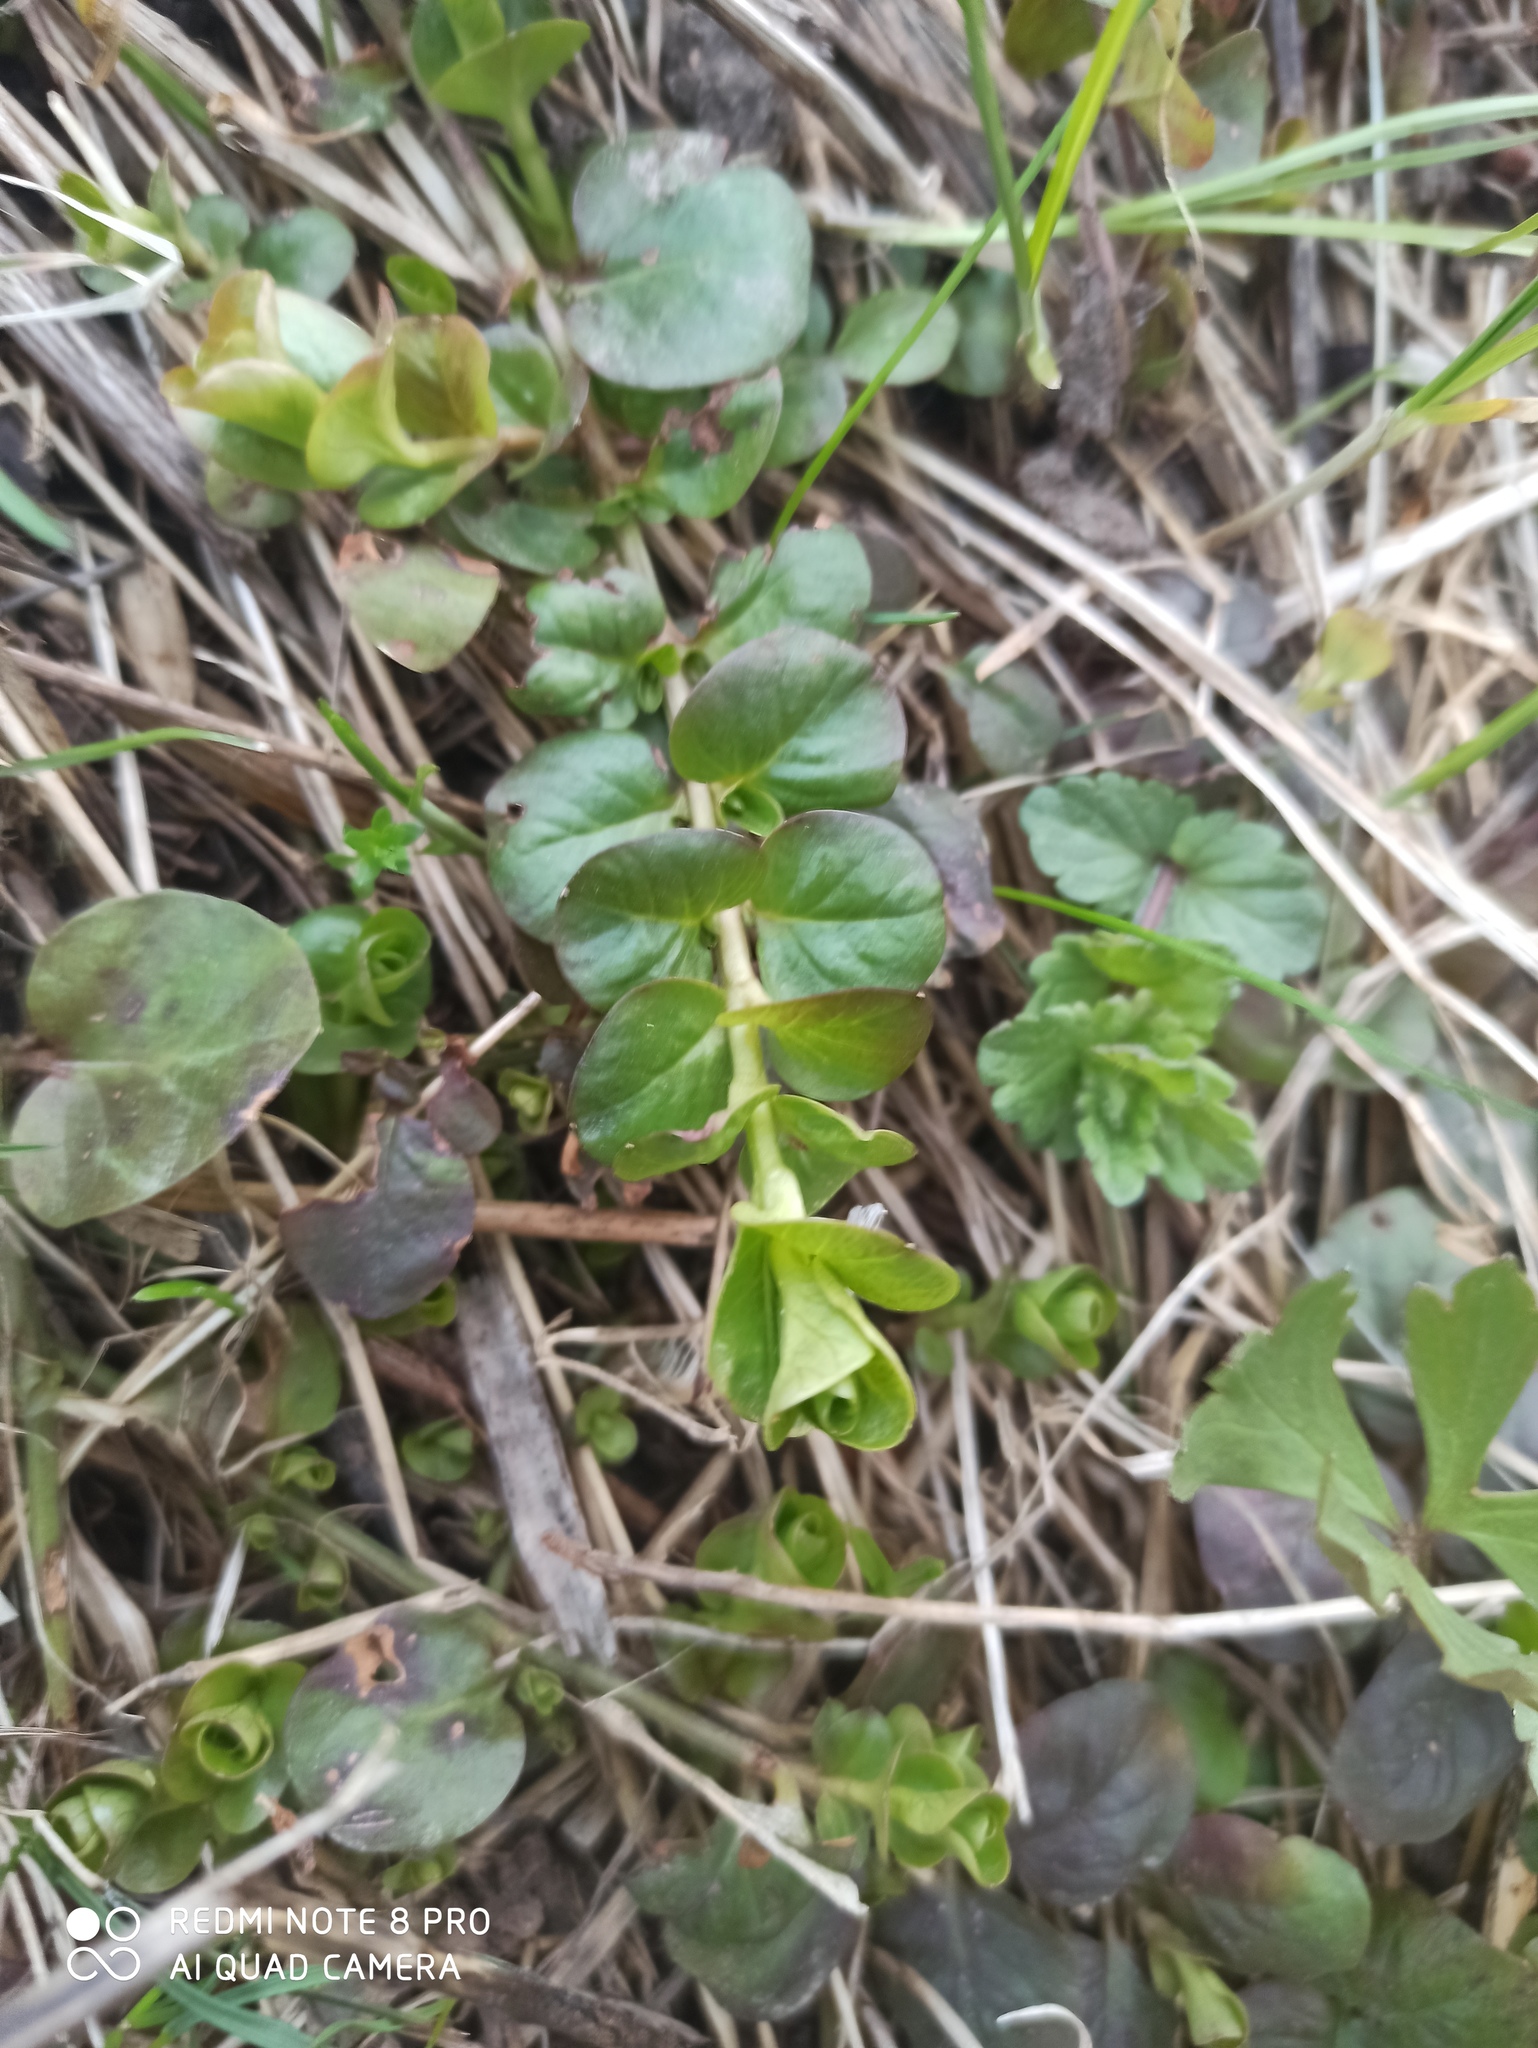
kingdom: Plantae
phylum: Tracheophyta
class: Magnoliopsida
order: Ericales
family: Primulaceae
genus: Lysimachia
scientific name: Lysimachia nummularia
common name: Moneywort
